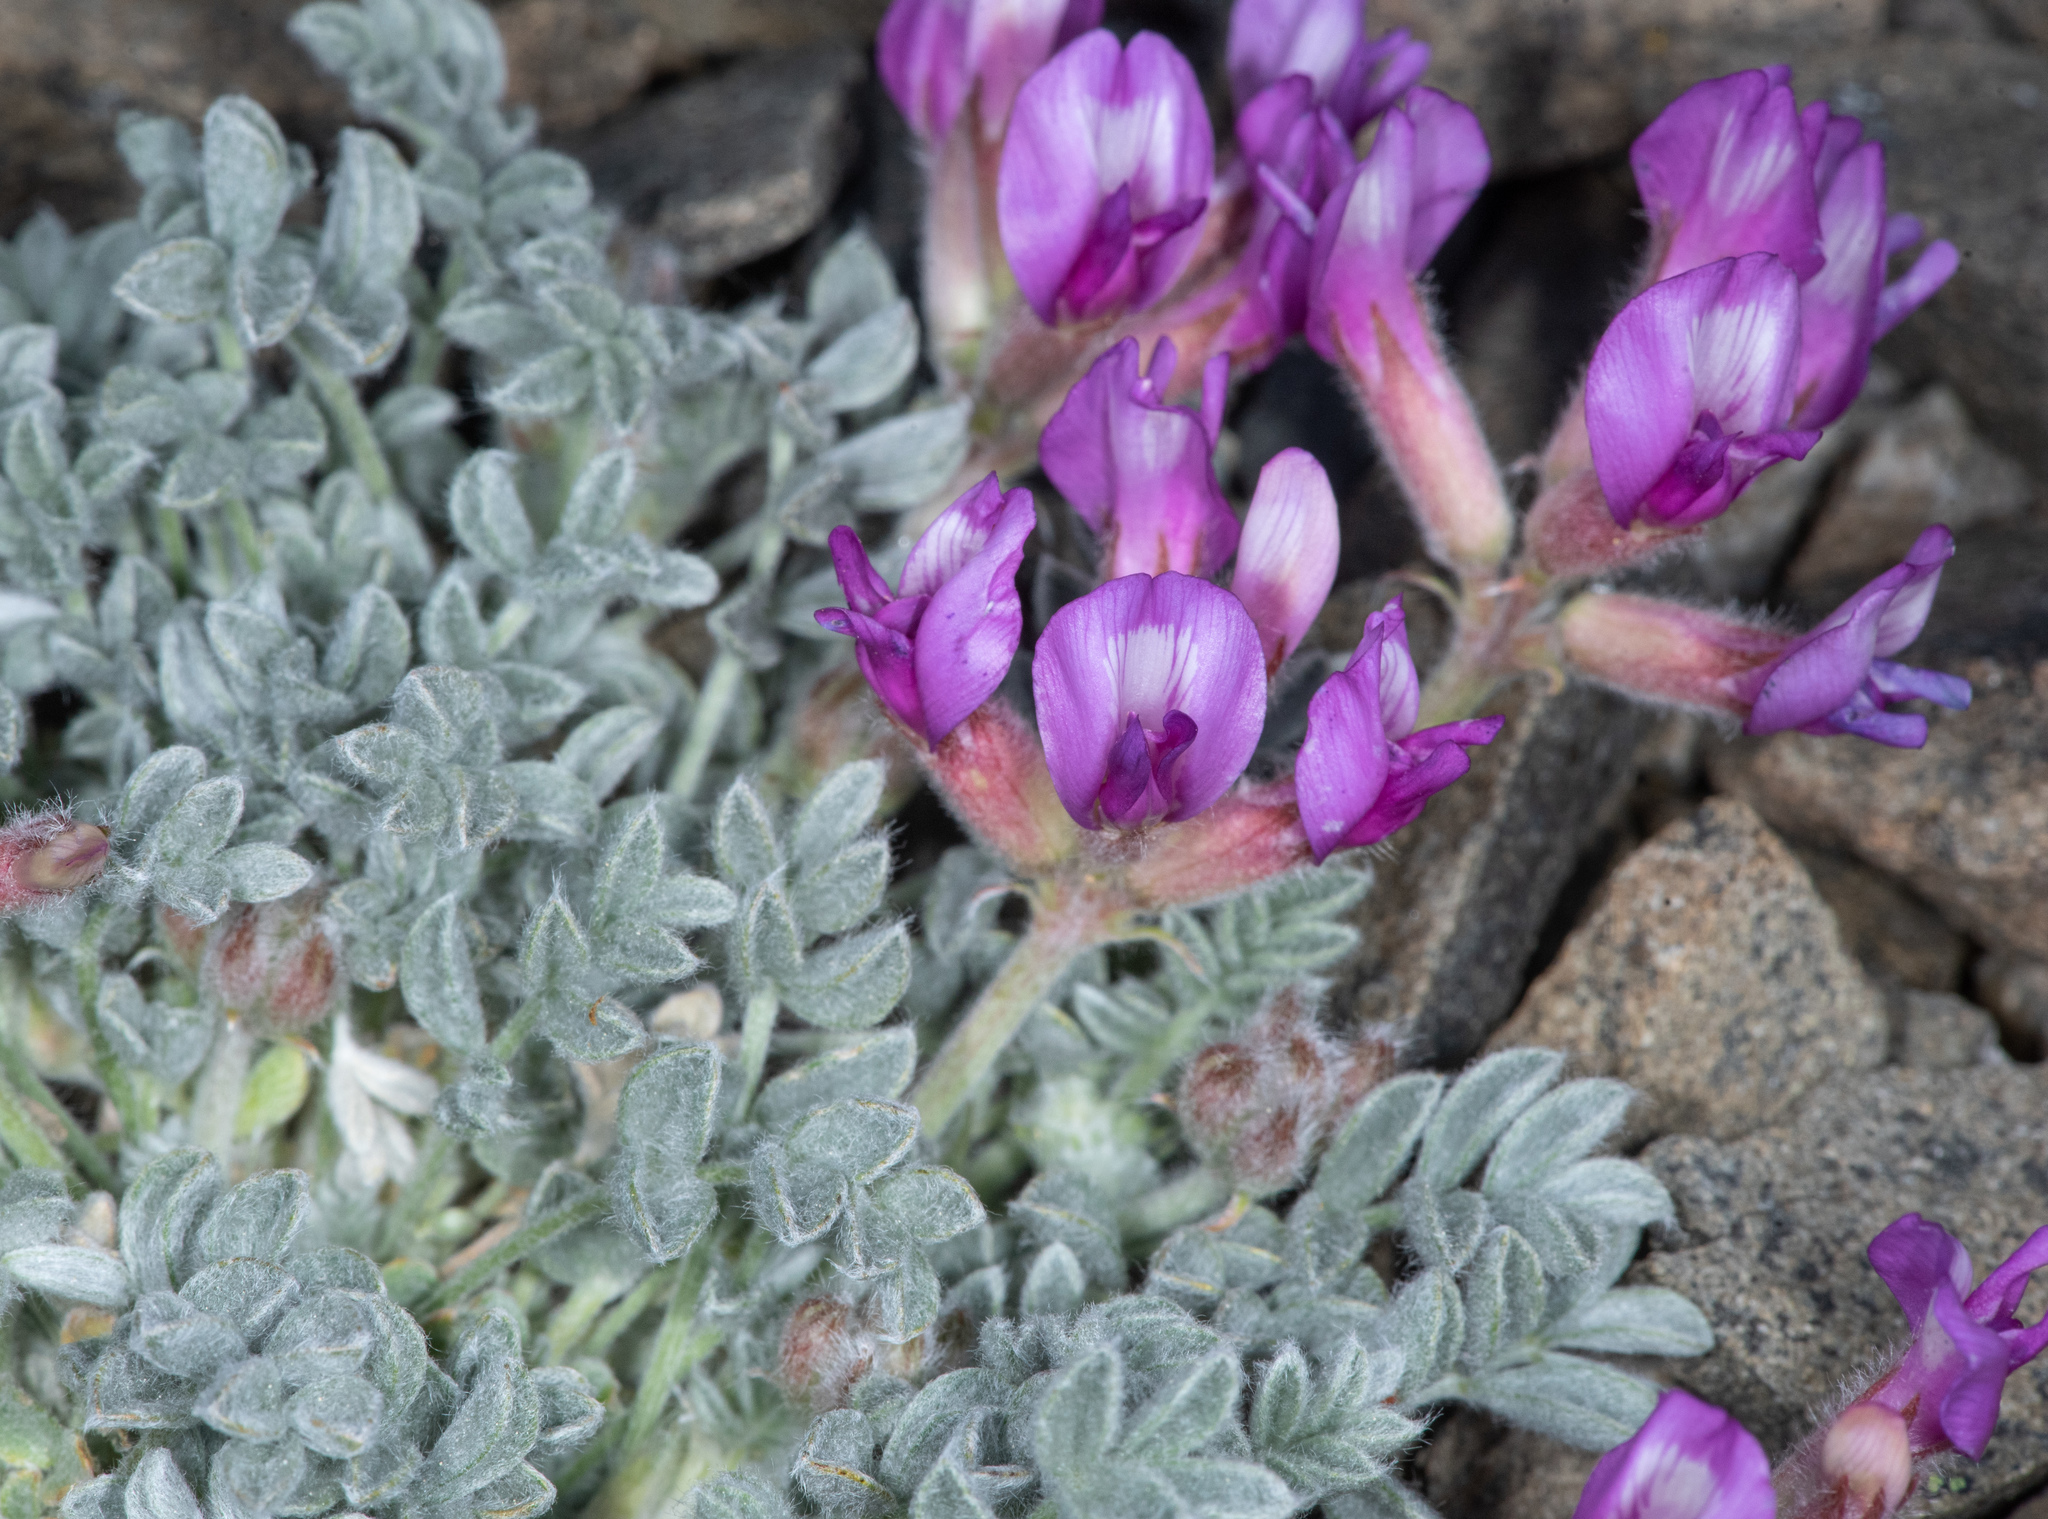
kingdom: Plantae
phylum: Tracheophyta
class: Magnoliopsida
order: Fabales
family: Fabaceae
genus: Astragalus
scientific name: Astragalus purshii
